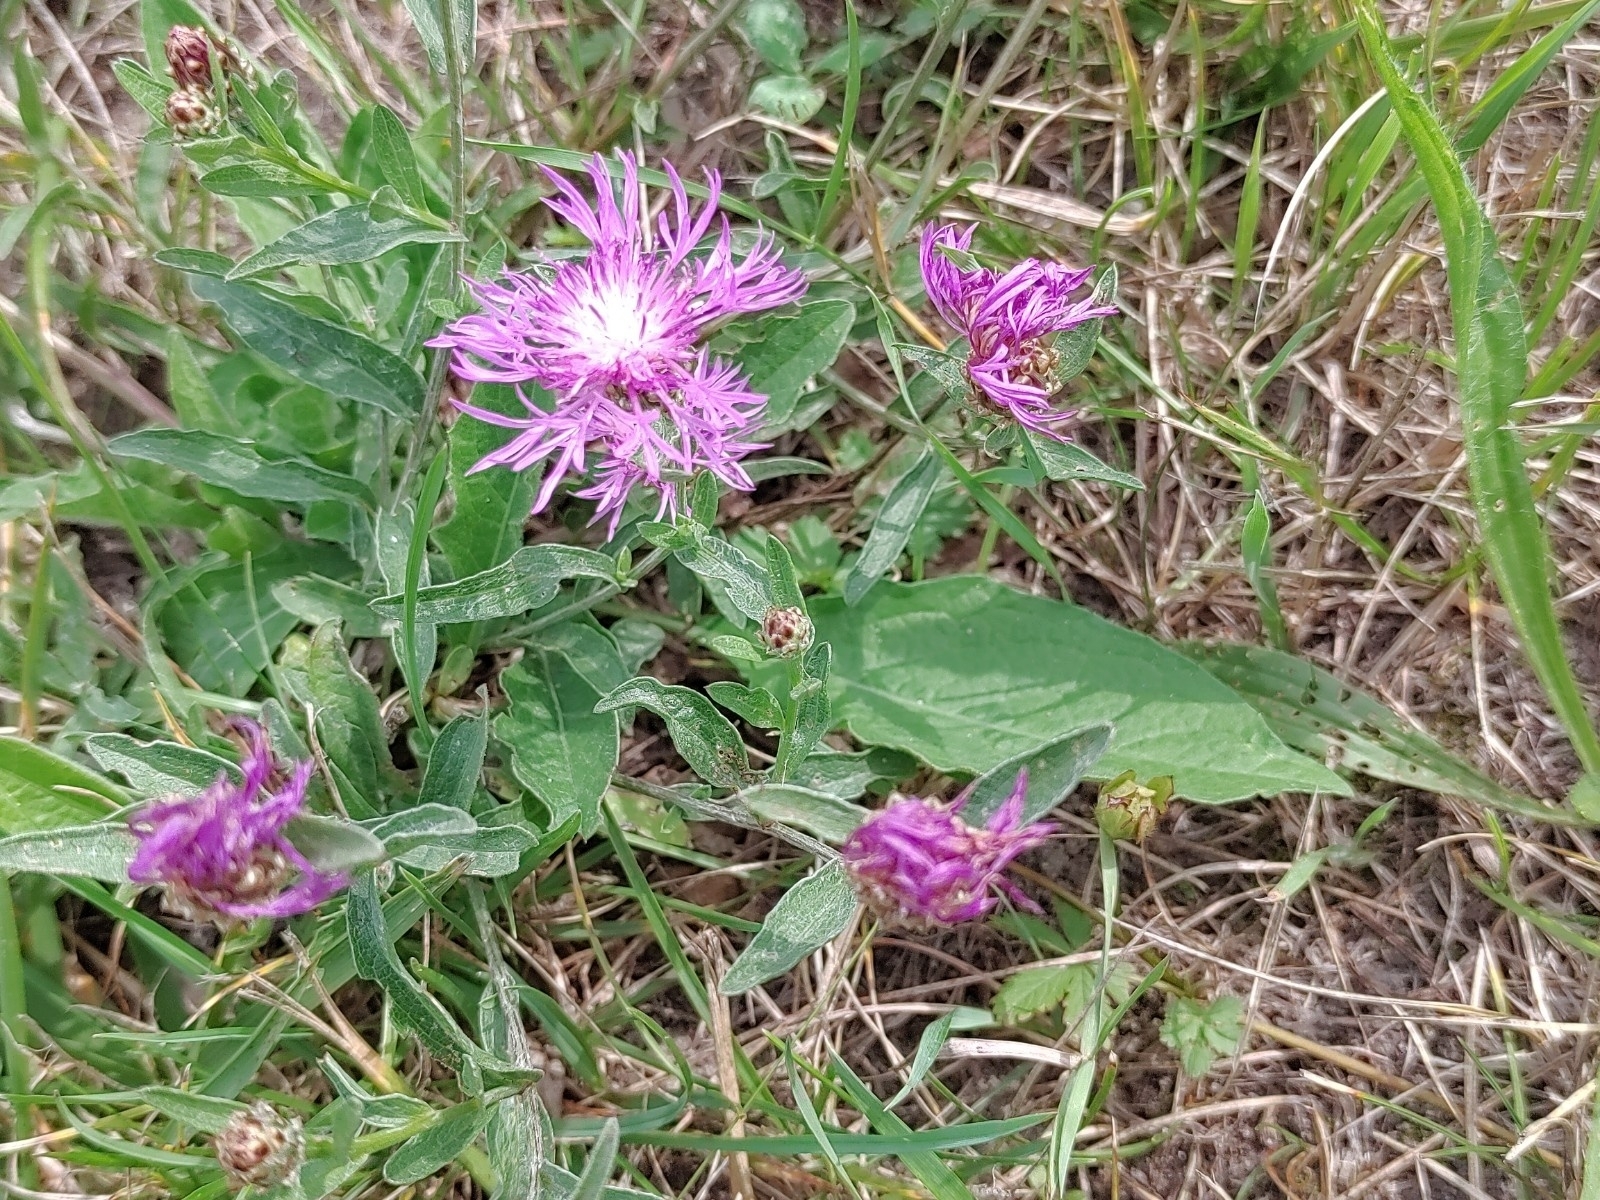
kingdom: Plantae
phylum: Tracheophyta
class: Magnoliopsida
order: Asterales
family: Asteraceae
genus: Centaurea
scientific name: Centaurea jacea
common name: Brown knapweed
